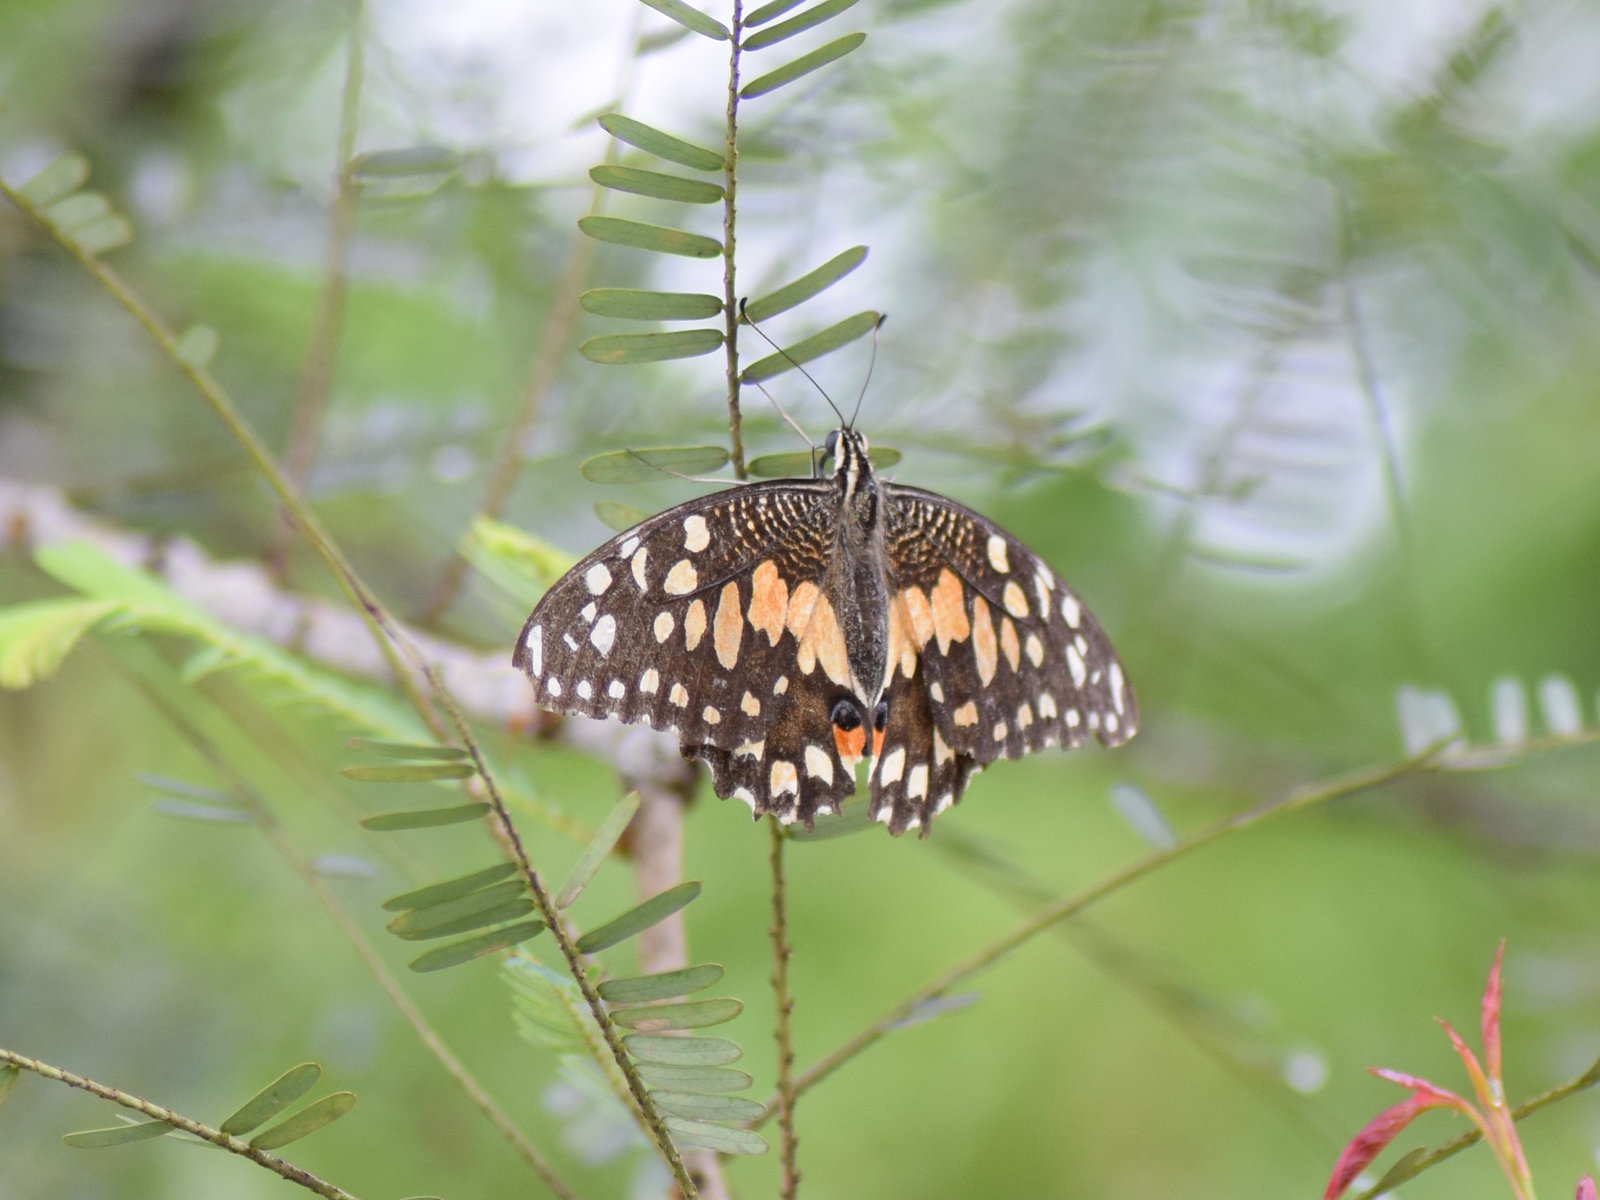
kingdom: Animalia
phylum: Arthropoda
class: Insecta
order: Lepidoptera
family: Papilionidae
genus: Papilio
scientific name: Papilio demoleus
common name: Lime butterfly
